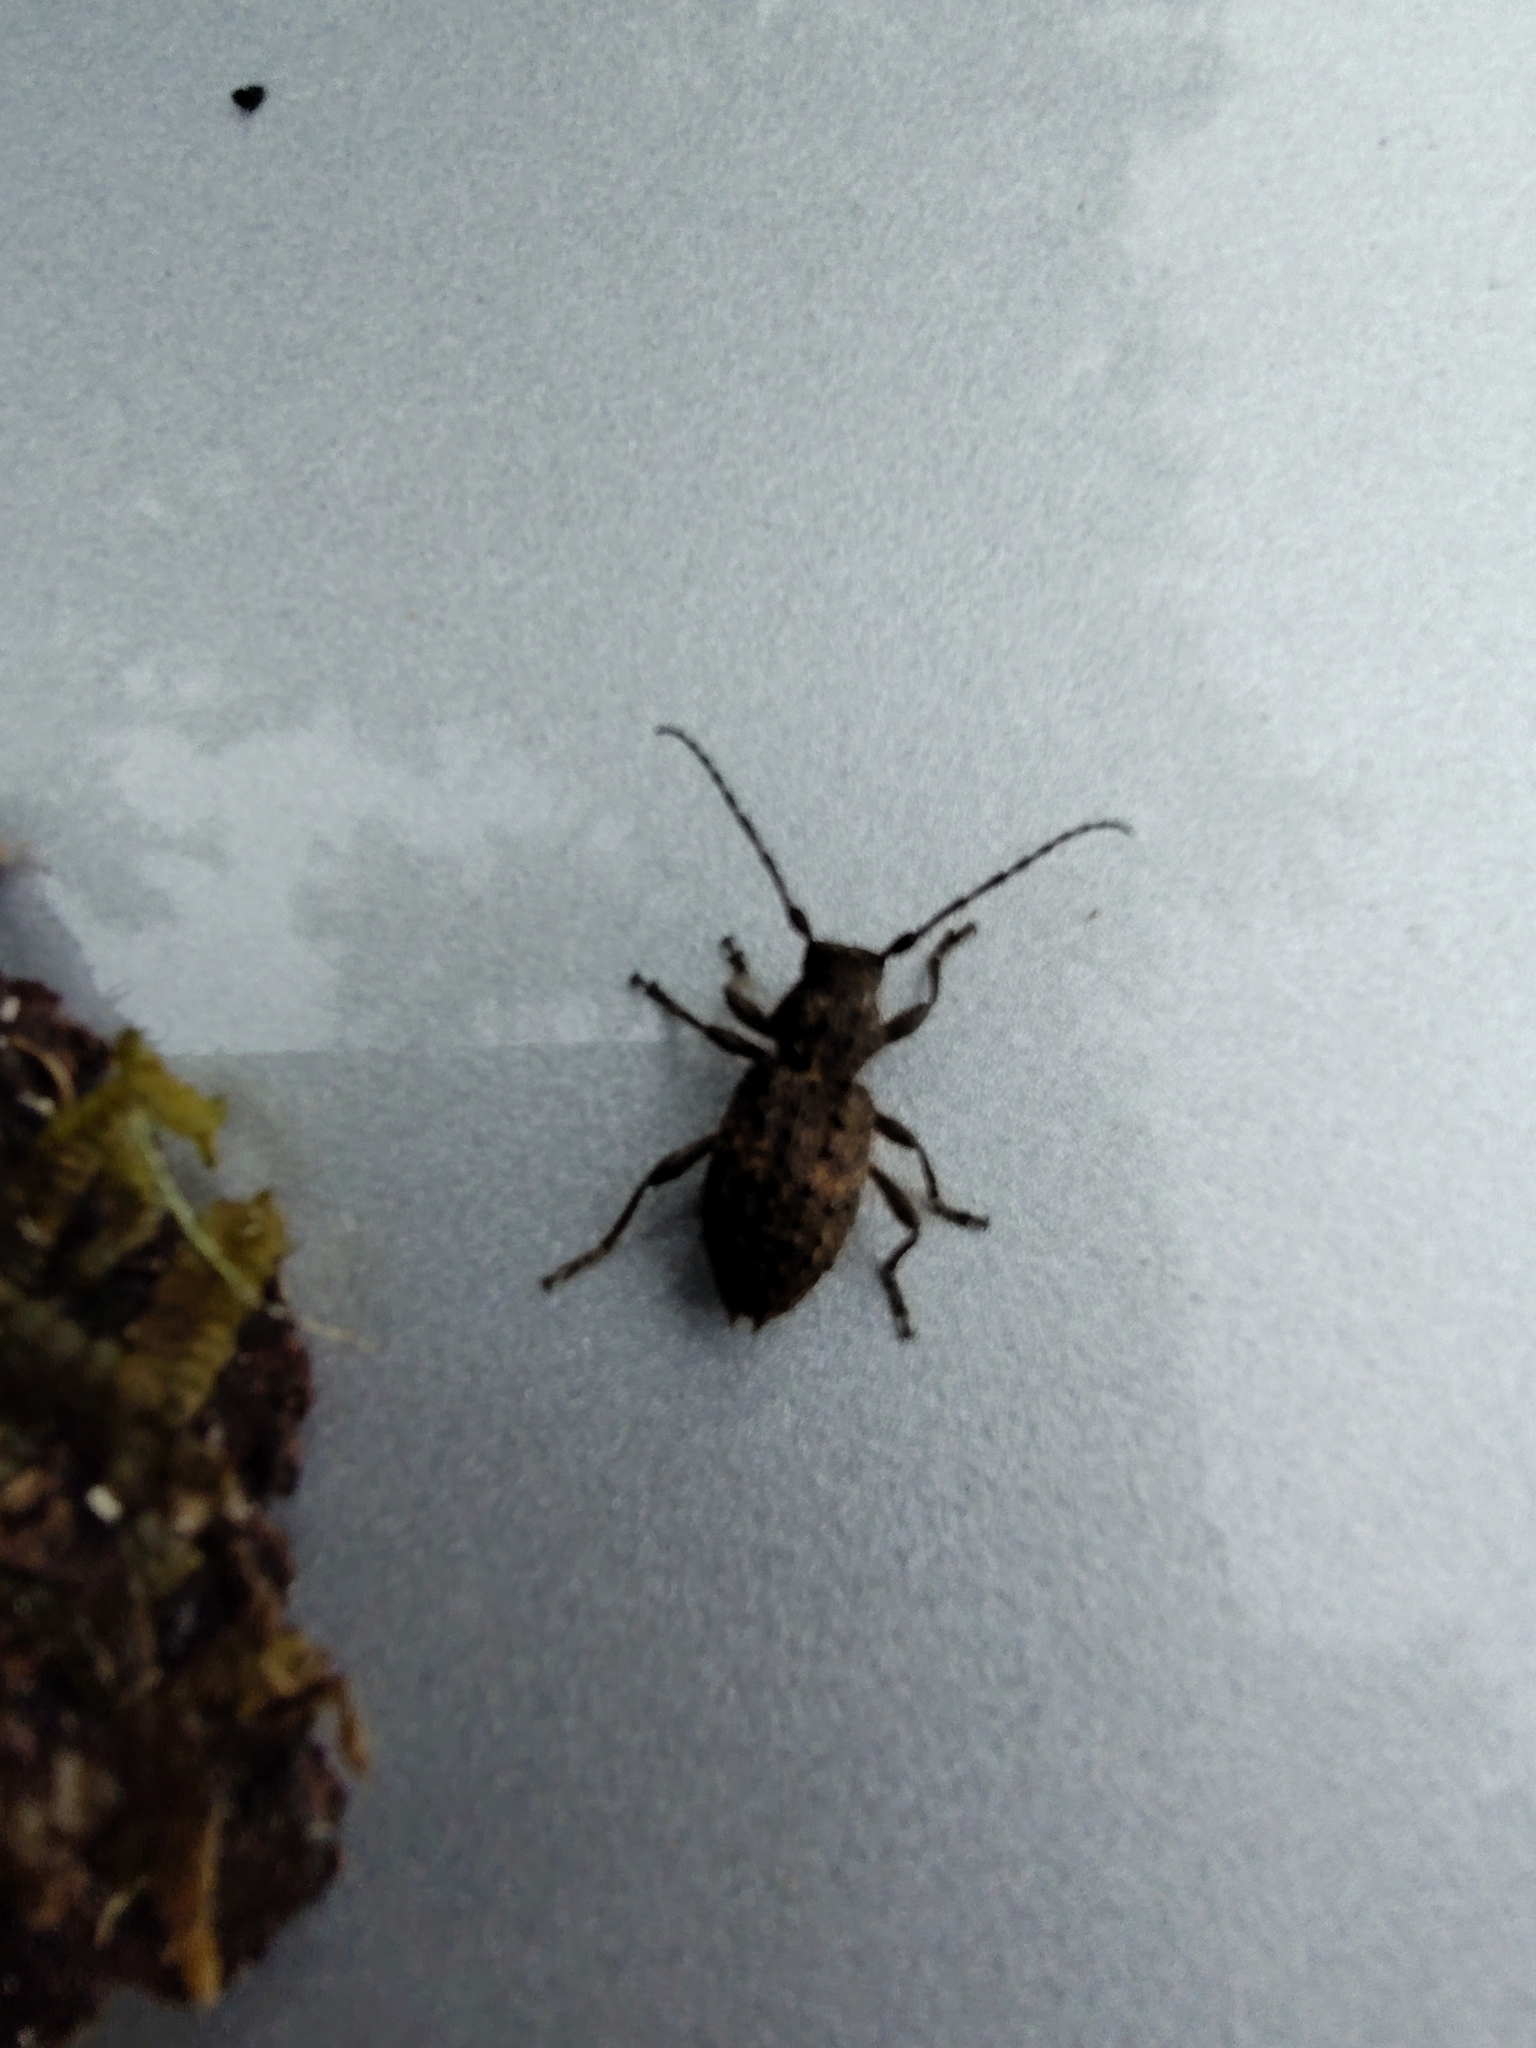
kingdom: Animalia
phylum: Arthropoda
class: Insecta
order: Coleoptera
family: Cerambycidae
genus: Plectrura
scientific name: Plectrura spinicauda
